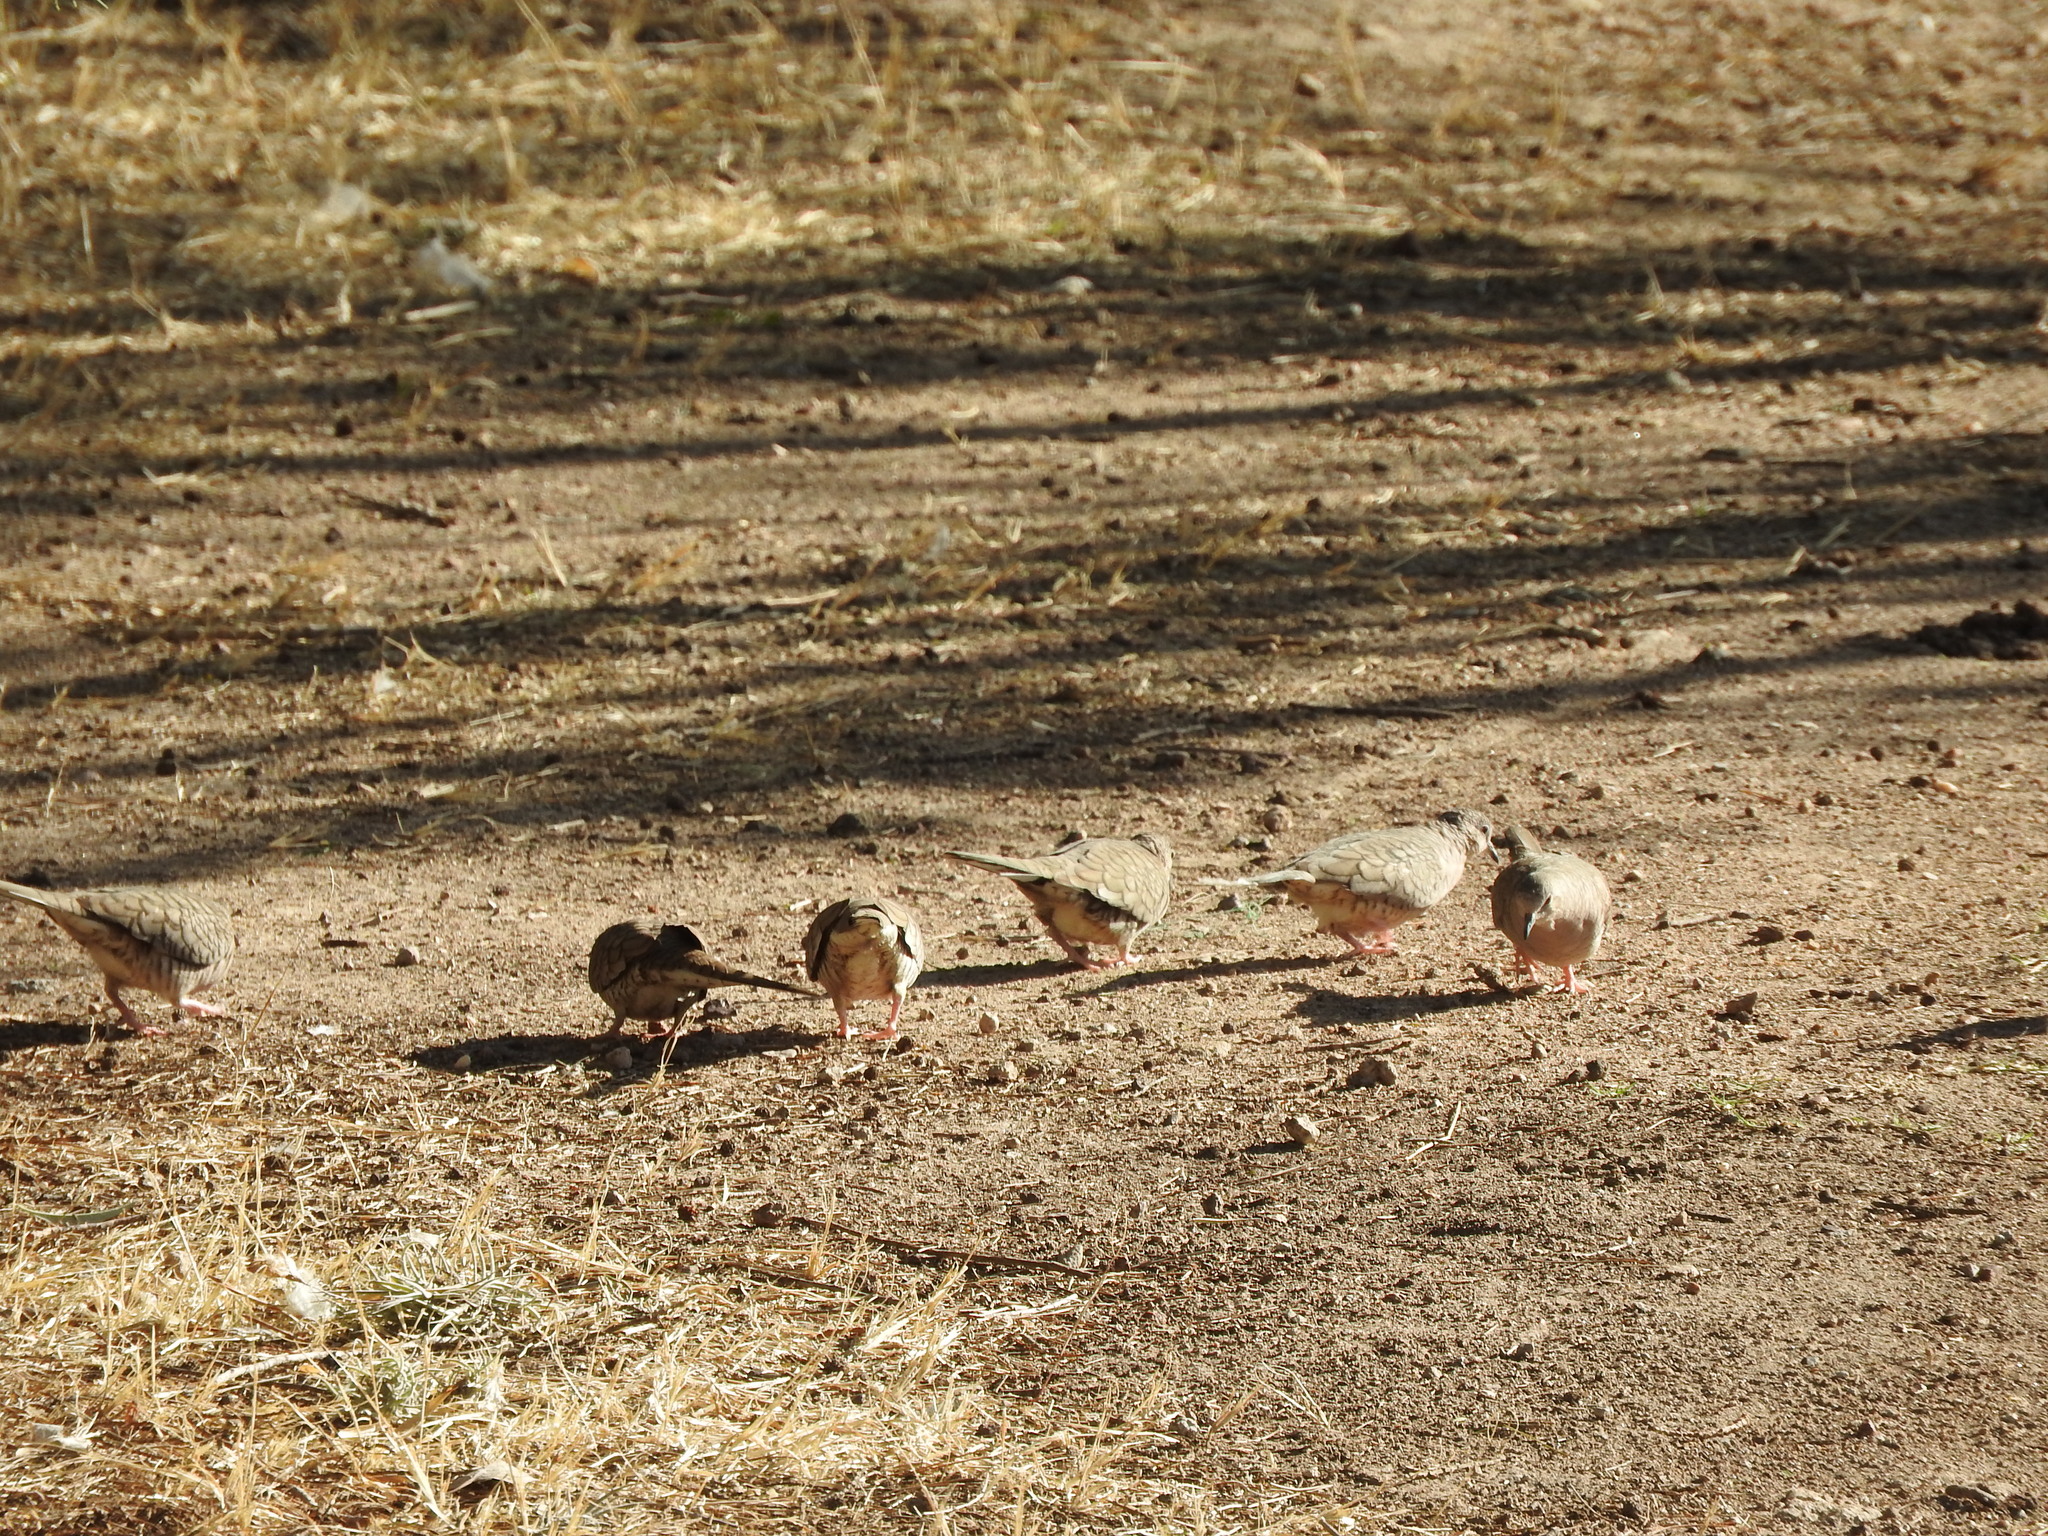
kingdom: Animalia
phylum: Chordata
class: Aves
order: Columbiformes
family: Columbidae
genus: Columbina
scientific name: Columbina inca
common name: Inca dove
